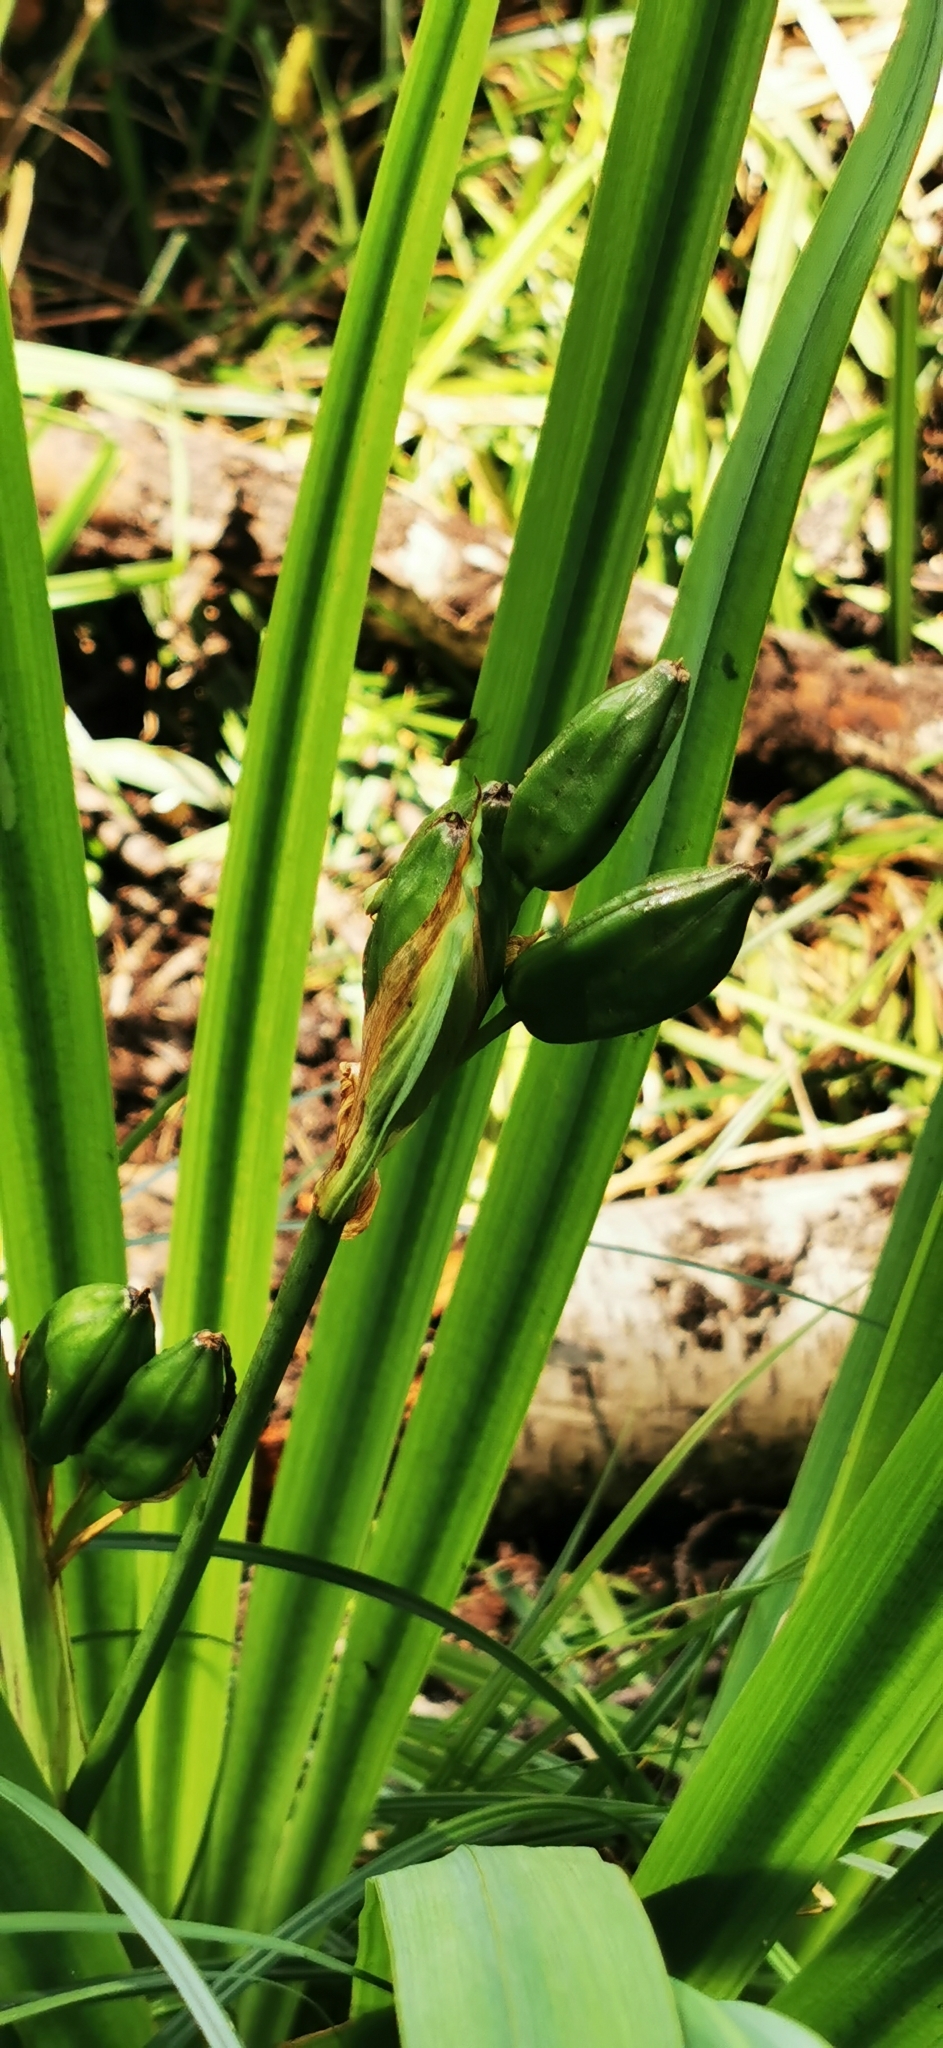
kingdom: Plantae
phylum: Tracheophyta
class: Liliopsida
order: Asparagales
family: Iridaceae
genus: Iris
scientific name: Iris pseudacorus
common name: Yellow flag
